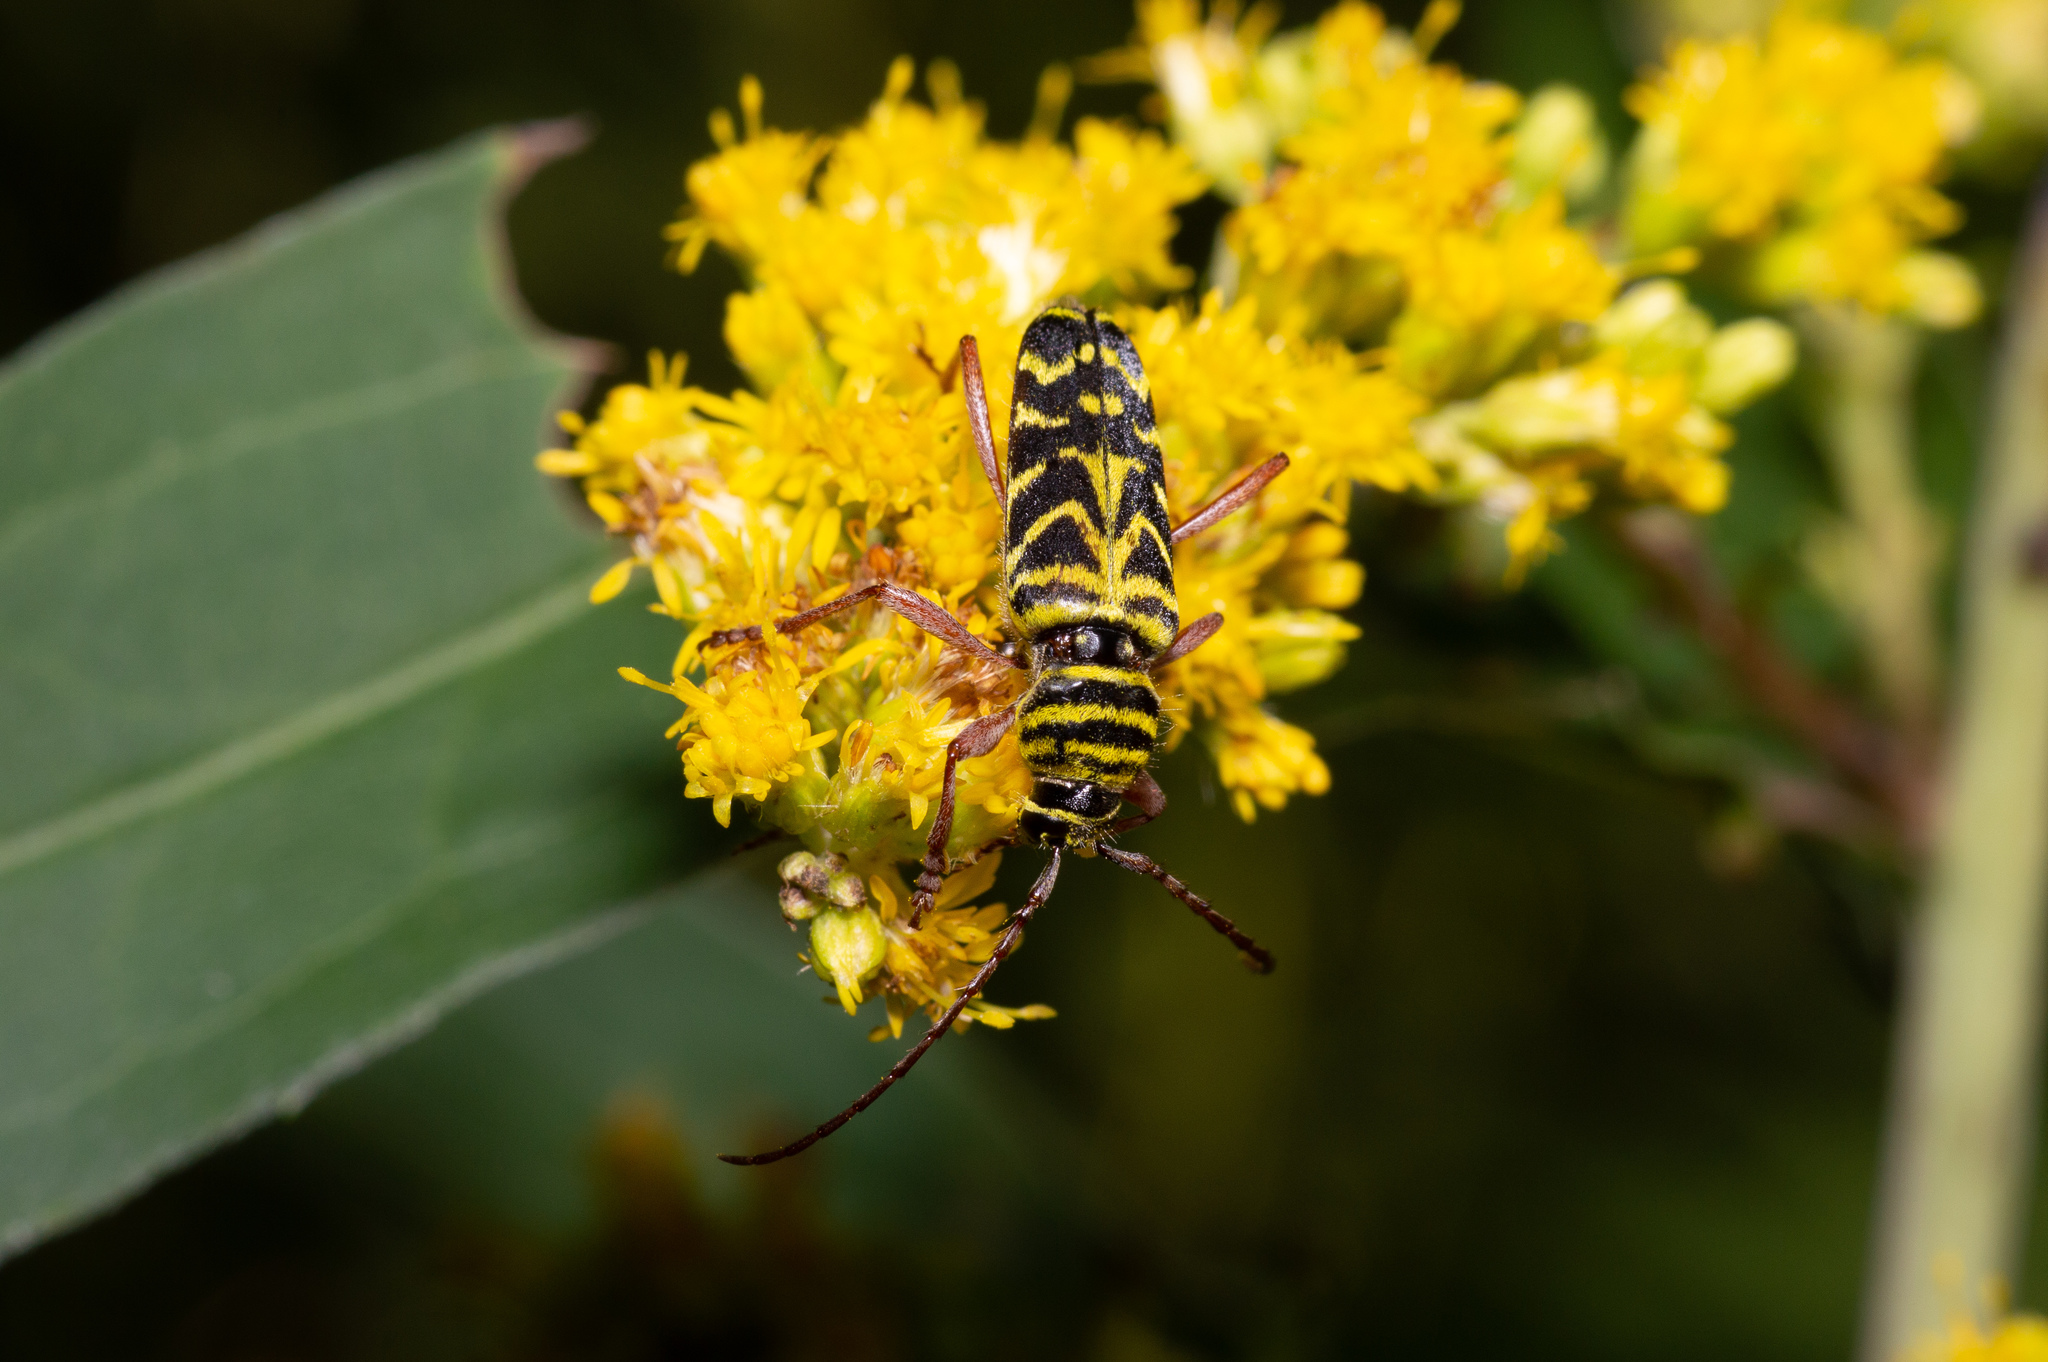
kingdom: Animalia
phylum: Arthropoda
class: Insecta
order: Coleoptera
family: Cerambycidae
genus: Megacyllene
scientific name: Megacyllene robiniae
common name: Locust borer
